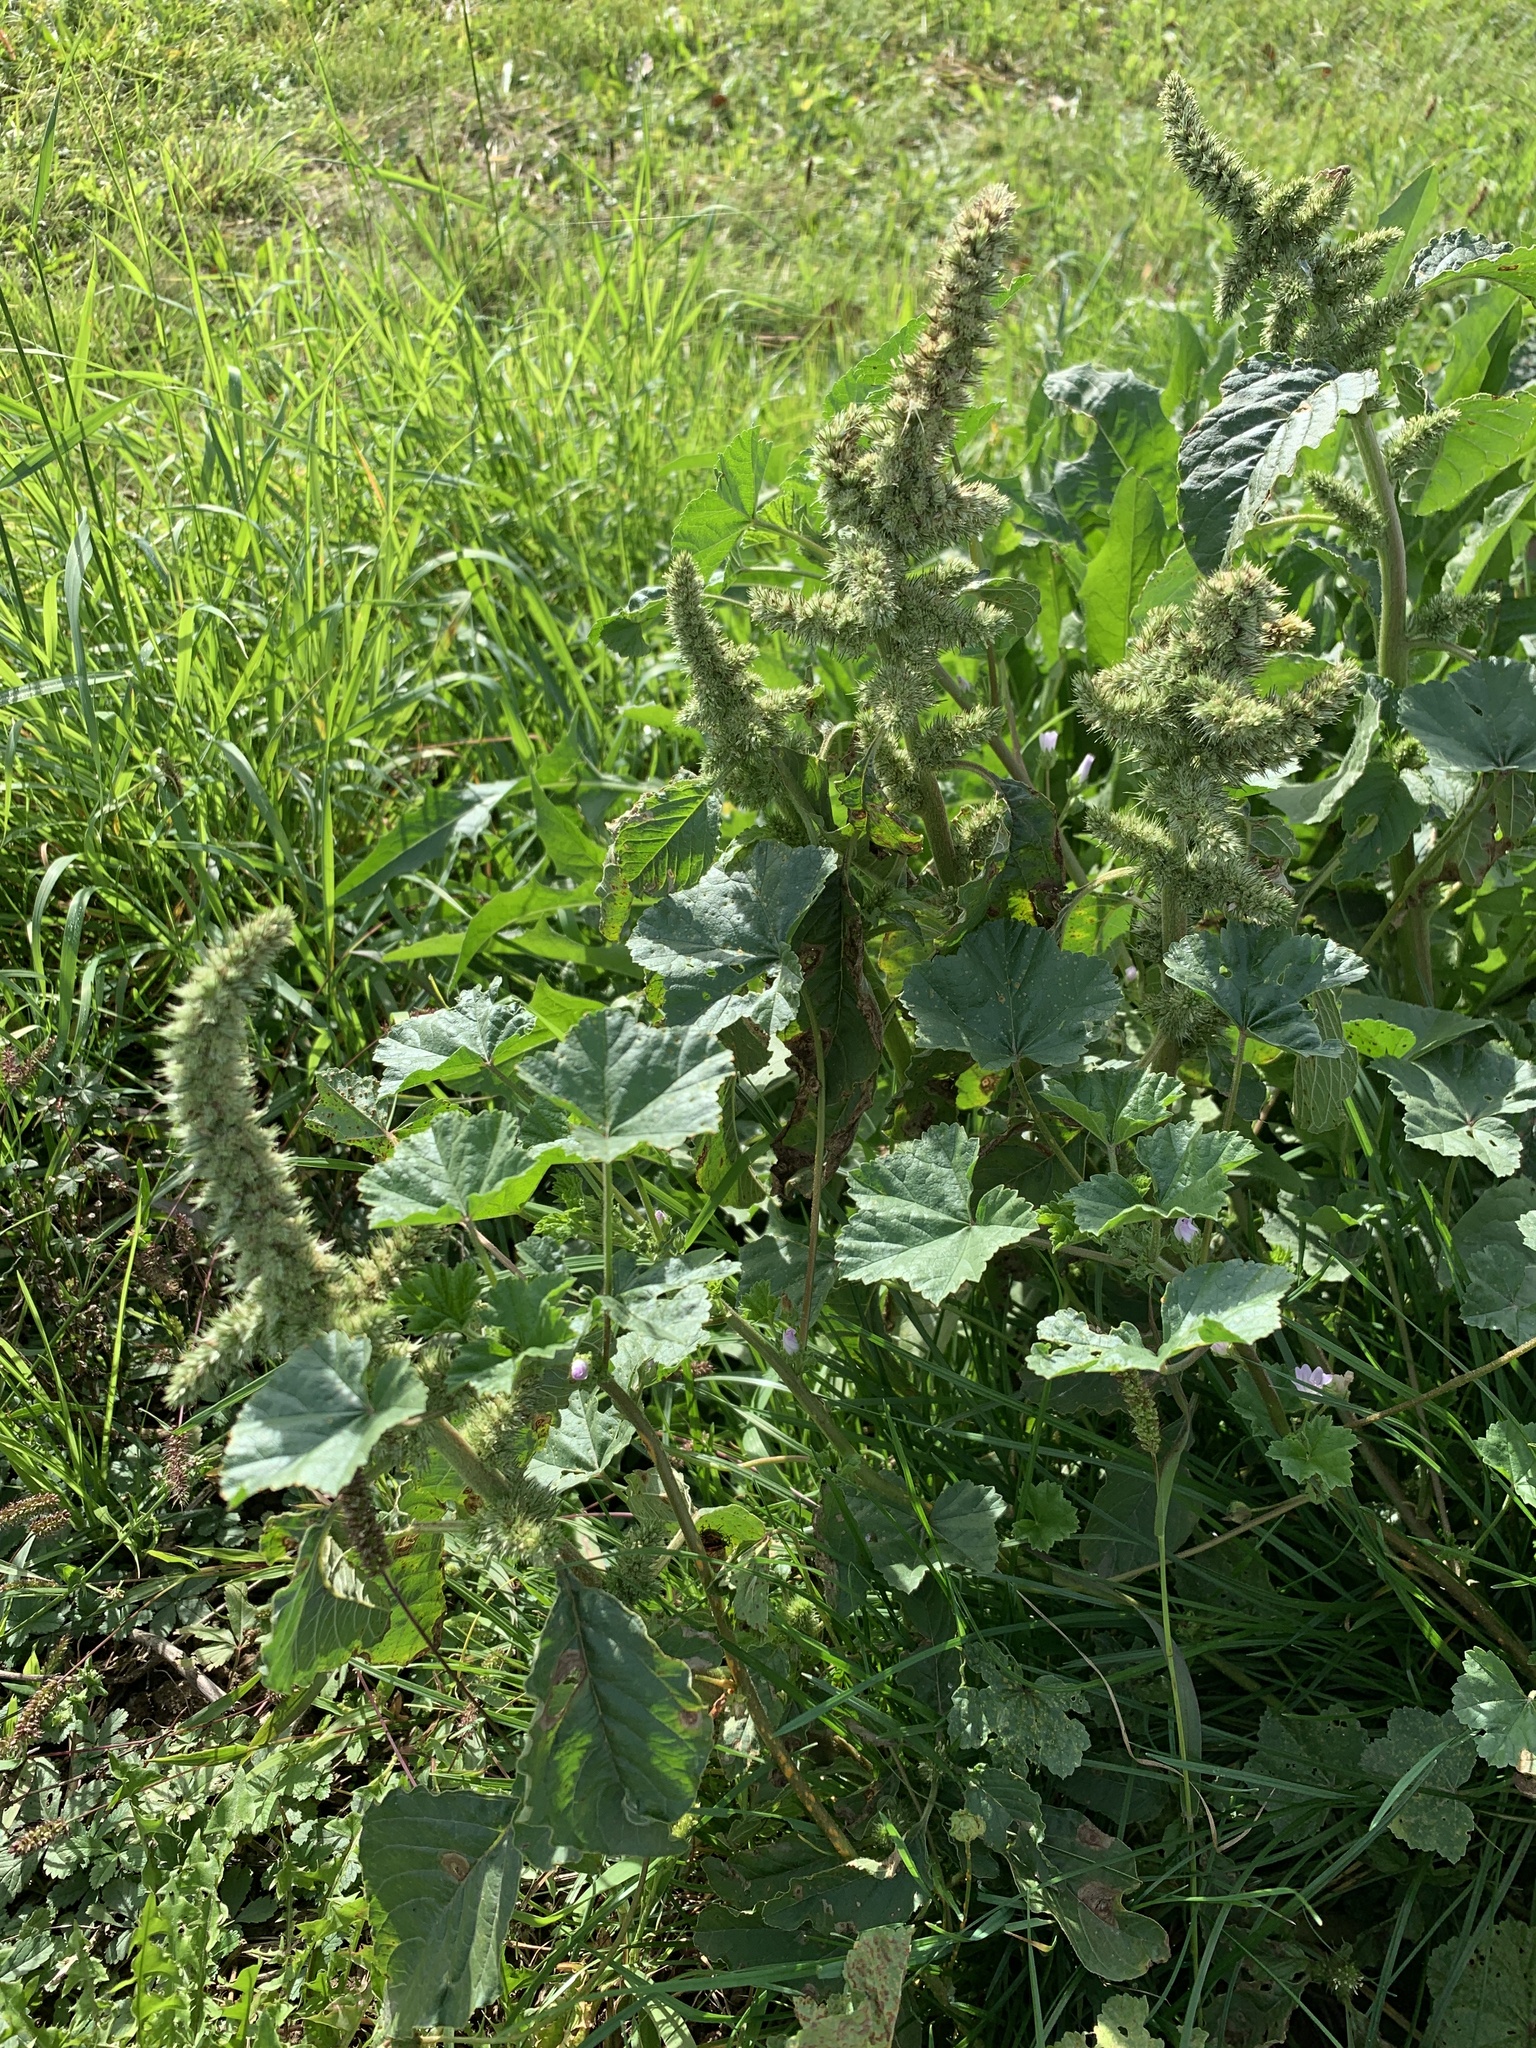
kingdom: Plantae
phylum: Tracheophyta
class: Magnoliopsida
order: Caryophyllales
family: Amaranthaceae
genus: Amaranthus
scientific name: Amaranthus retroflexus
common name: Redroot amaranth
